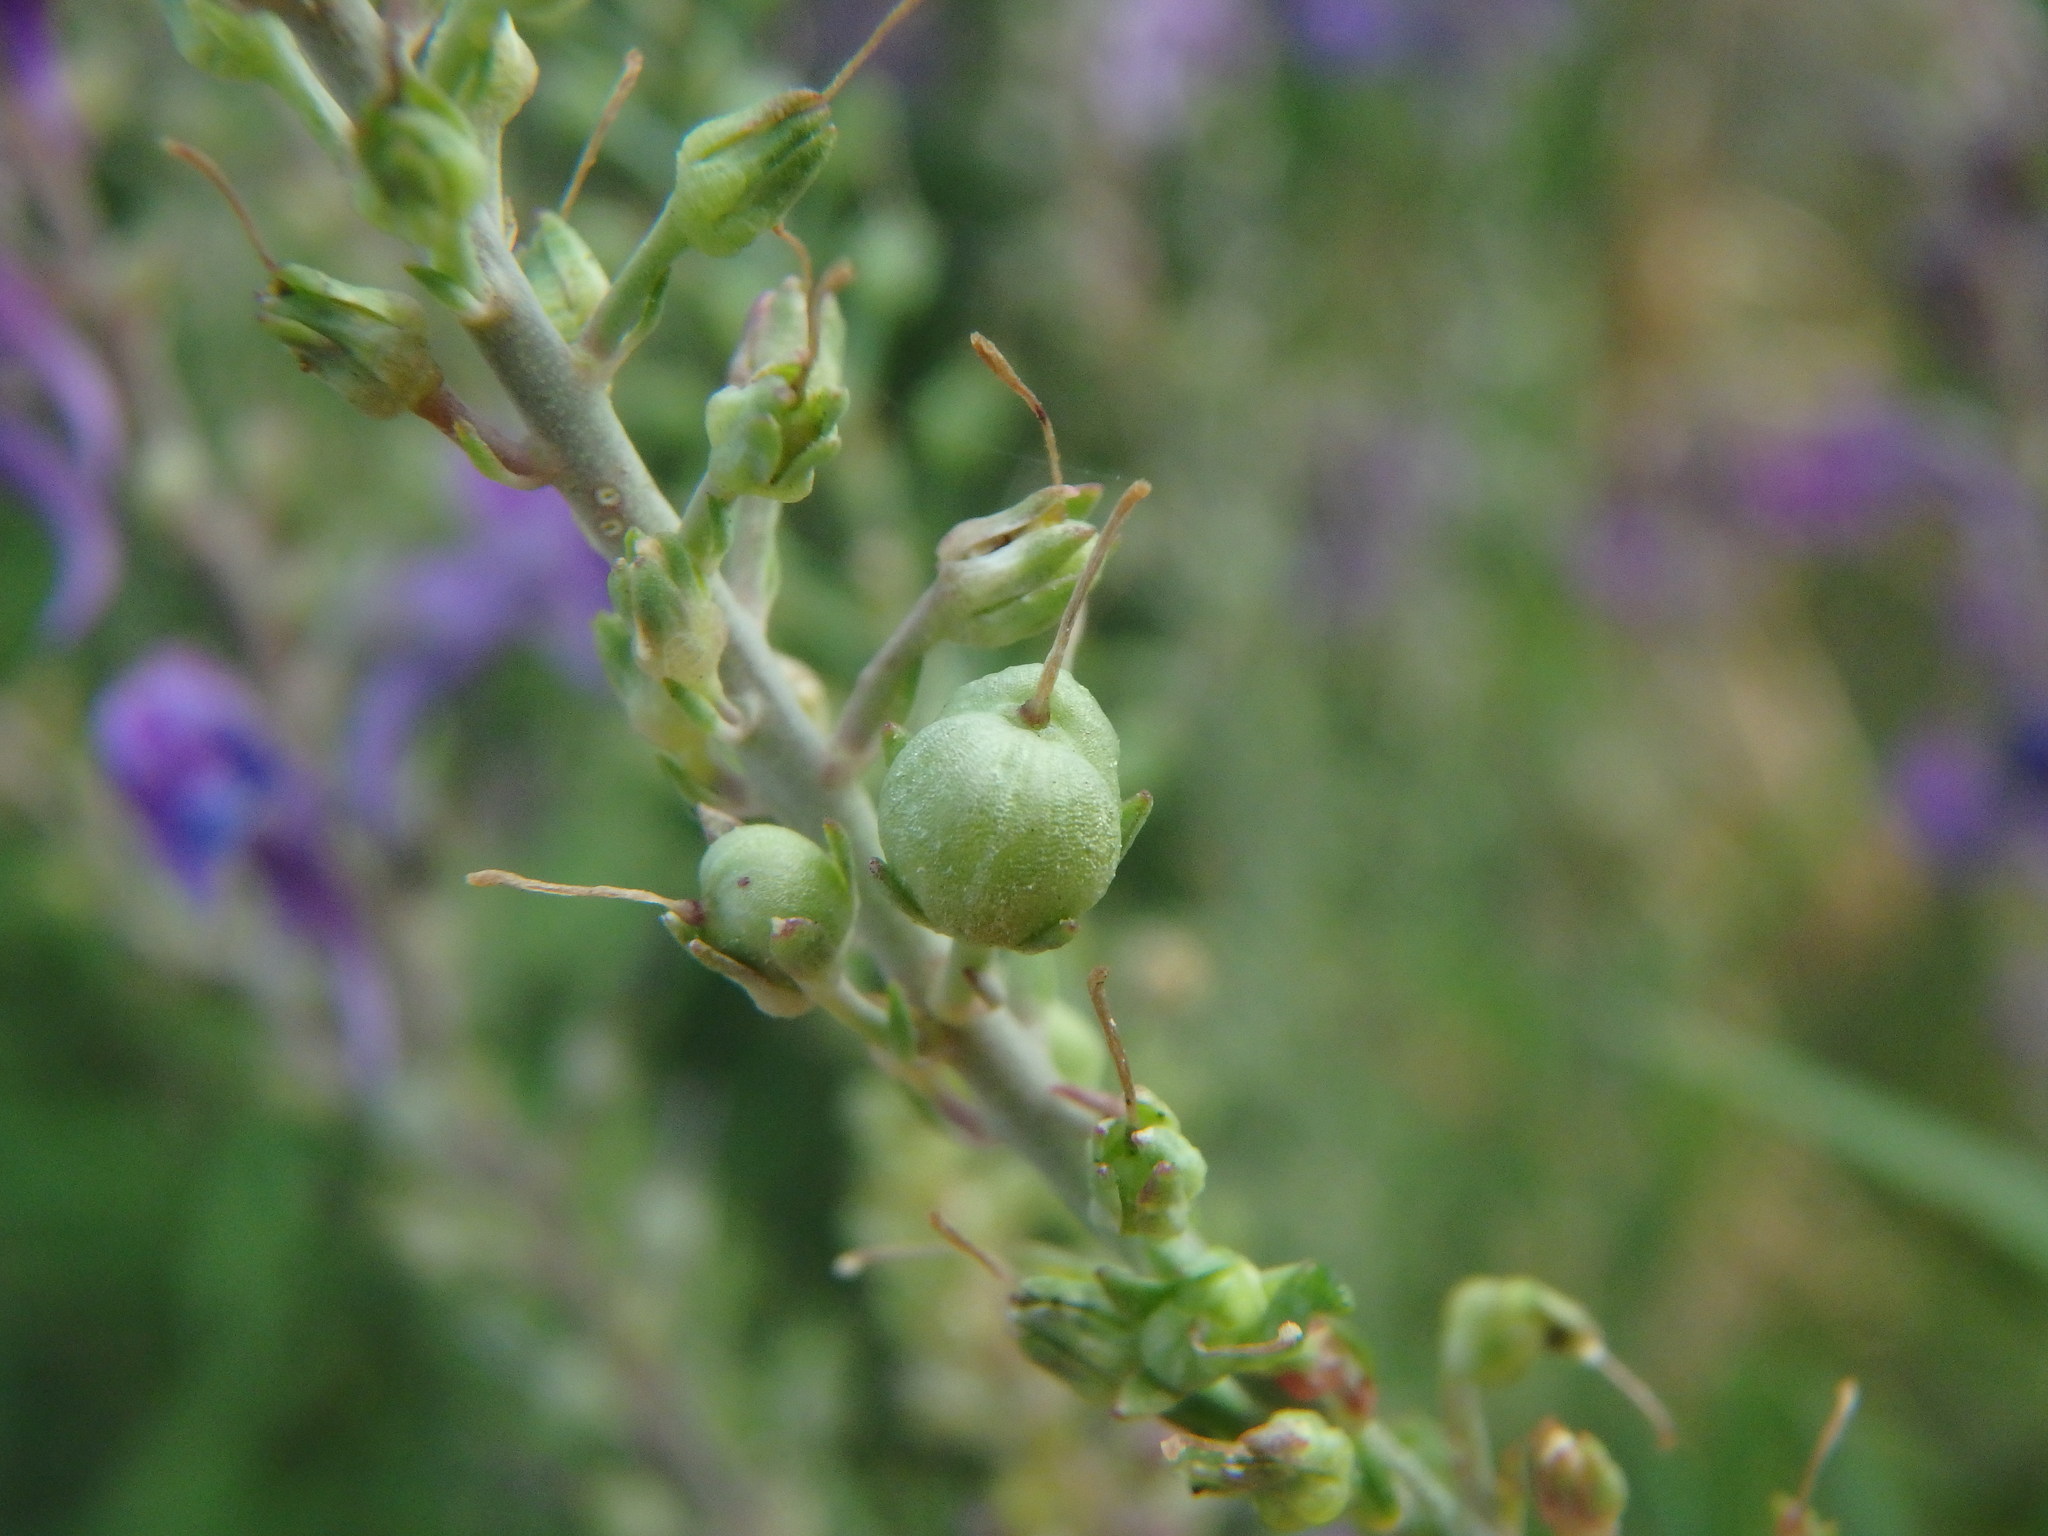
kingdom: Plantae
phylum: Tracheophyta
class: Magnoliopsida
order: Lamiales
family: Plantaginaceae
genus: Linaria
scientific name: Linaria purpurea
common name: Purple toadflax
